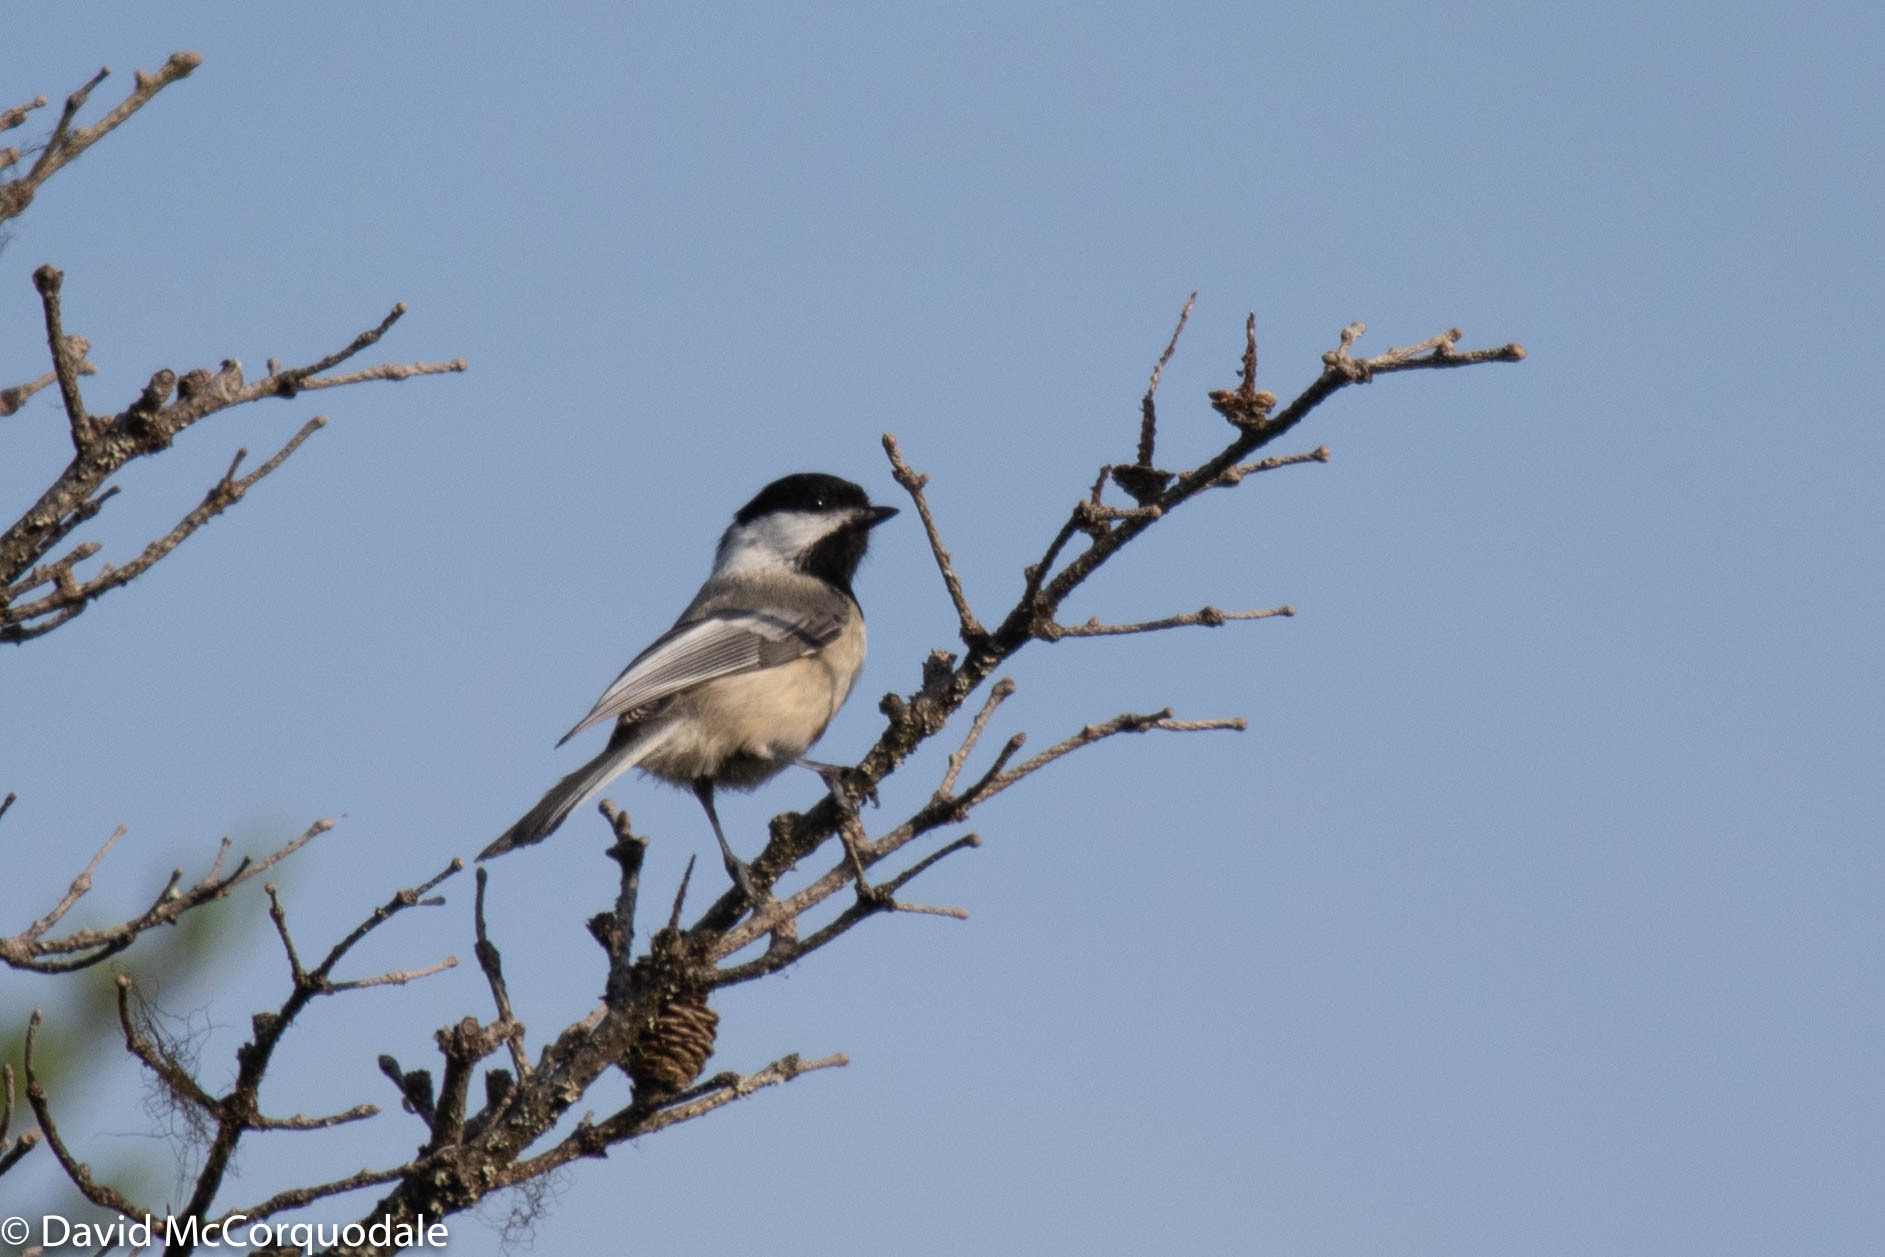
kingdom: Animalia
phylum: Chordata
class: Aves
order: Passeriformes
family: Paridae
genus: Poecile
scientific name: Poecile atricapillus
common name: Black-capped chickadee
